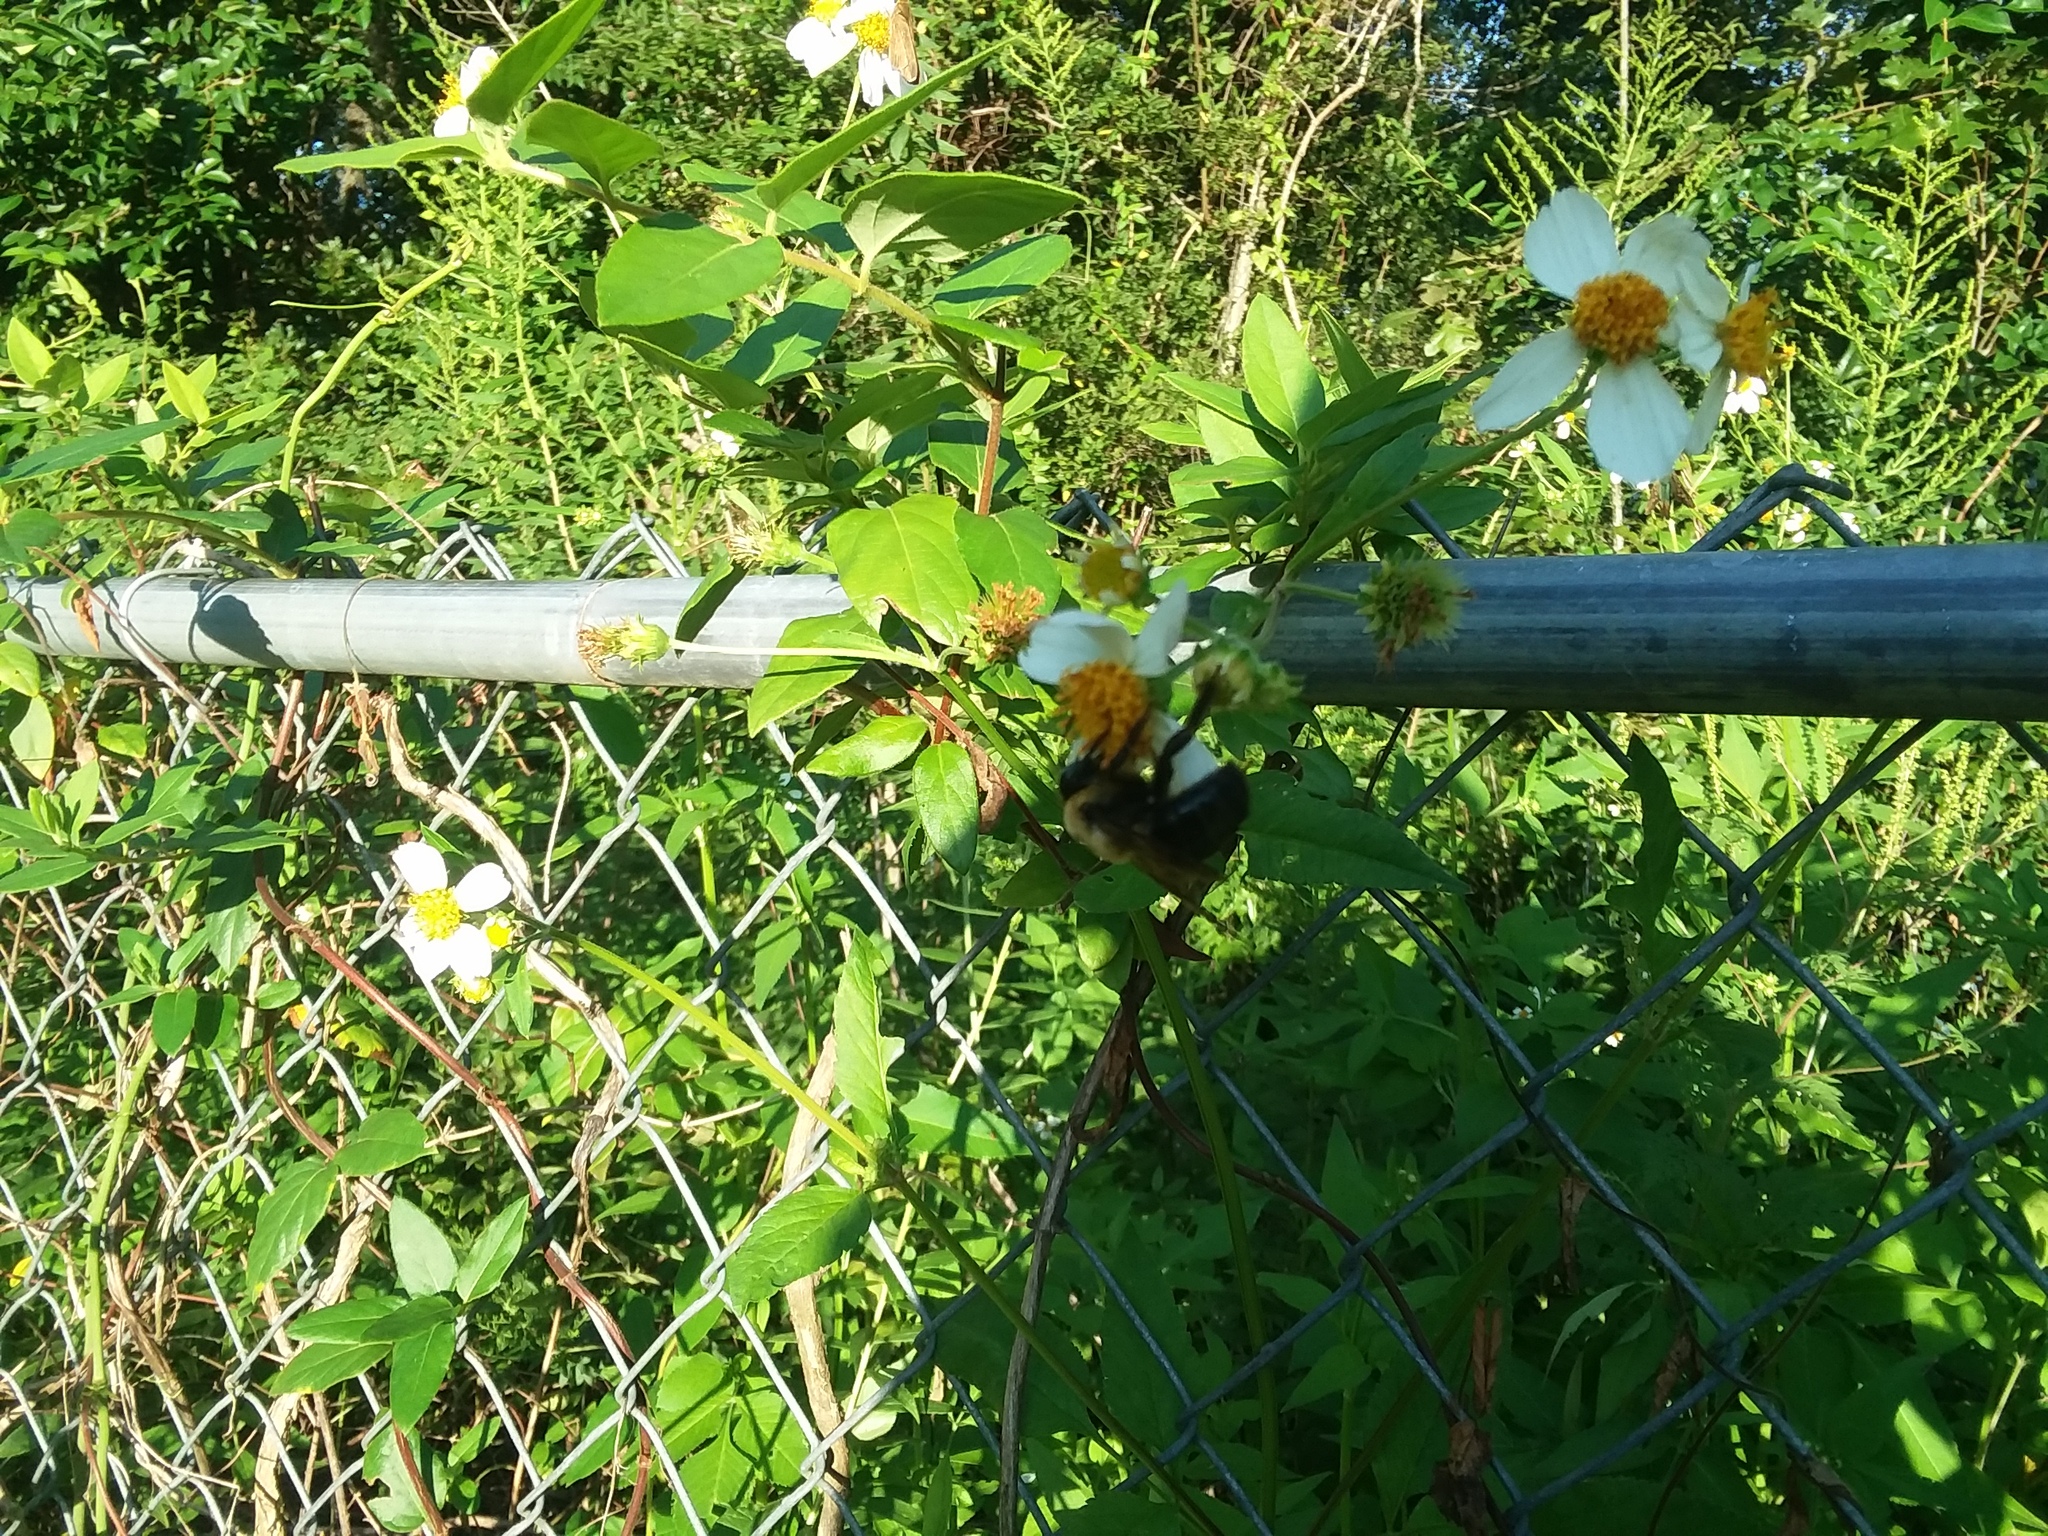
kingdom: Animalia
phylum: Arthropoda
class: Insecta
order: Hymenoptera
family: Apidae
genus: Xylocopa
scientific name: Xylocopa virginica
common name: Carpenter bee
